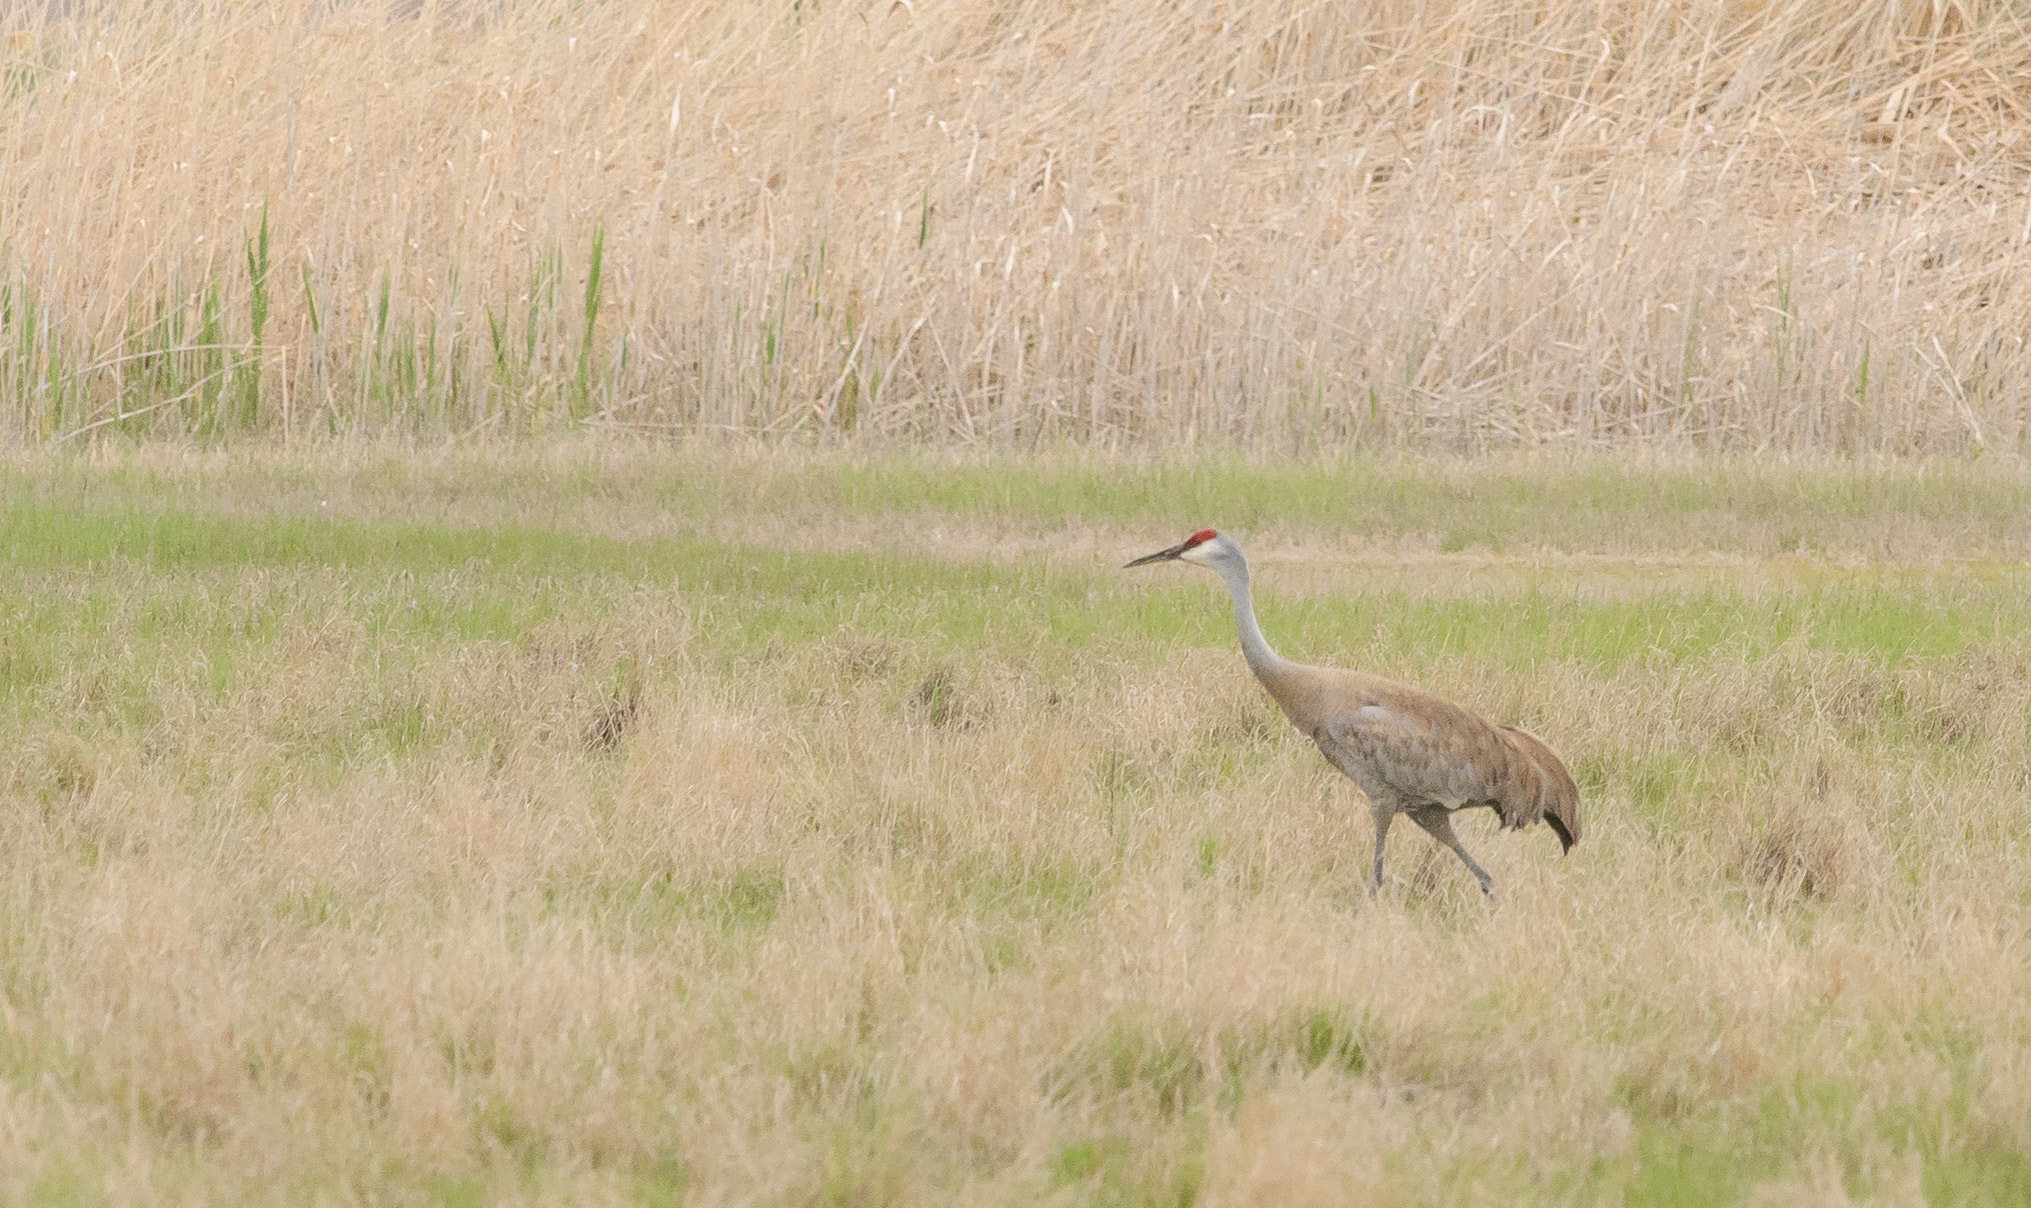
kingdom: Animalia
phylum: Chordata
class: Aves
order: Gruiformes
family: Gruidae
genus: Grus
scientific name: Grus canadensis
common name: Sandhill crane
